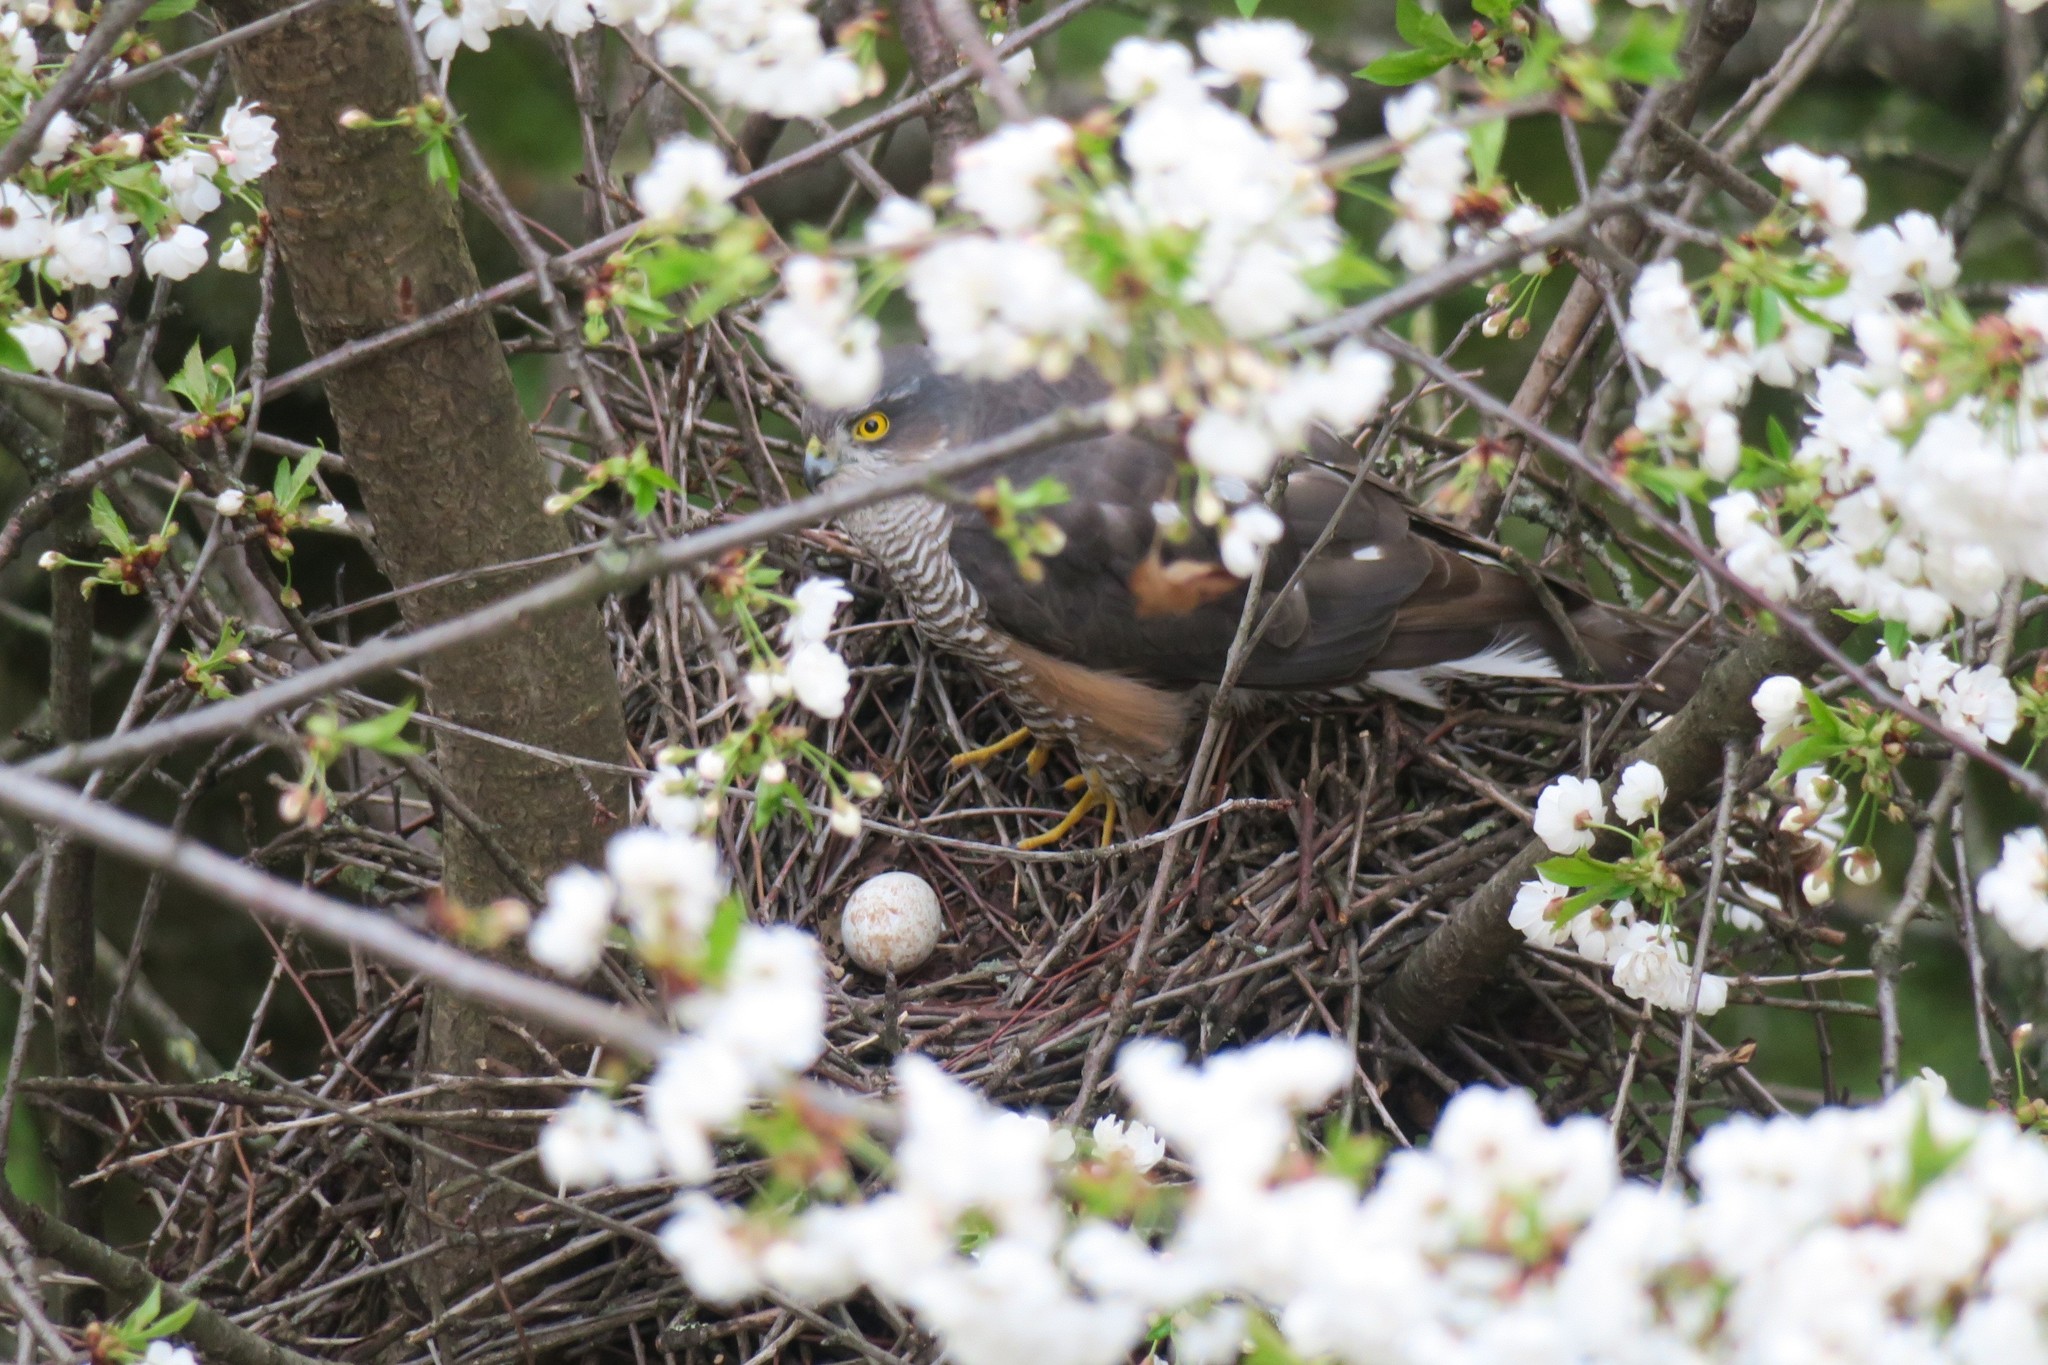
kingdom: Animalia
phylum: Chordata
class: Aves
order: Accipitriformes
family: Accipitridae
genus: Accipiter
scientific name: Accipiter nisus
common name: Eurasian sparrowhawk
